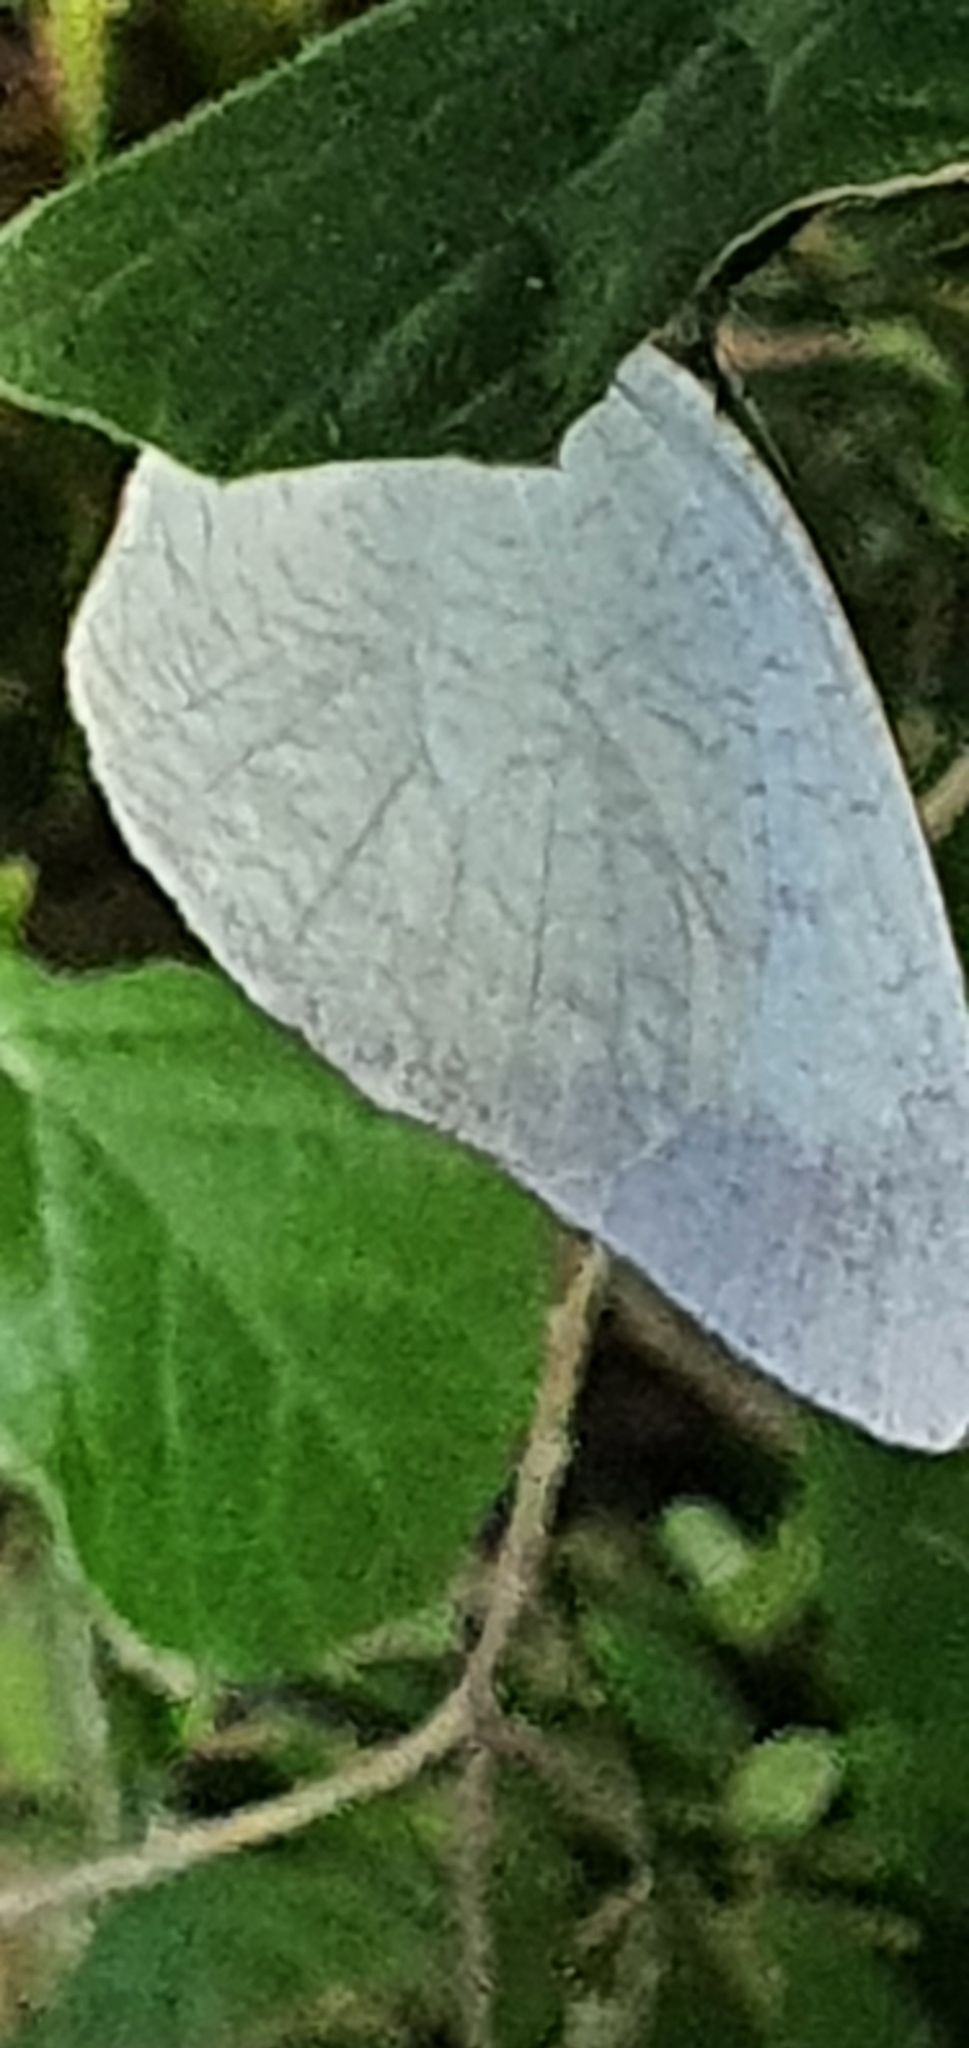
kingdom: Animalia
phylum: Arthropoda
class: Insecta
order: Lepidoptera
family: Pieridae
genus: Catopsilia
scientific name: Catopsilia pyranthe
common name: Mottled emigrant
